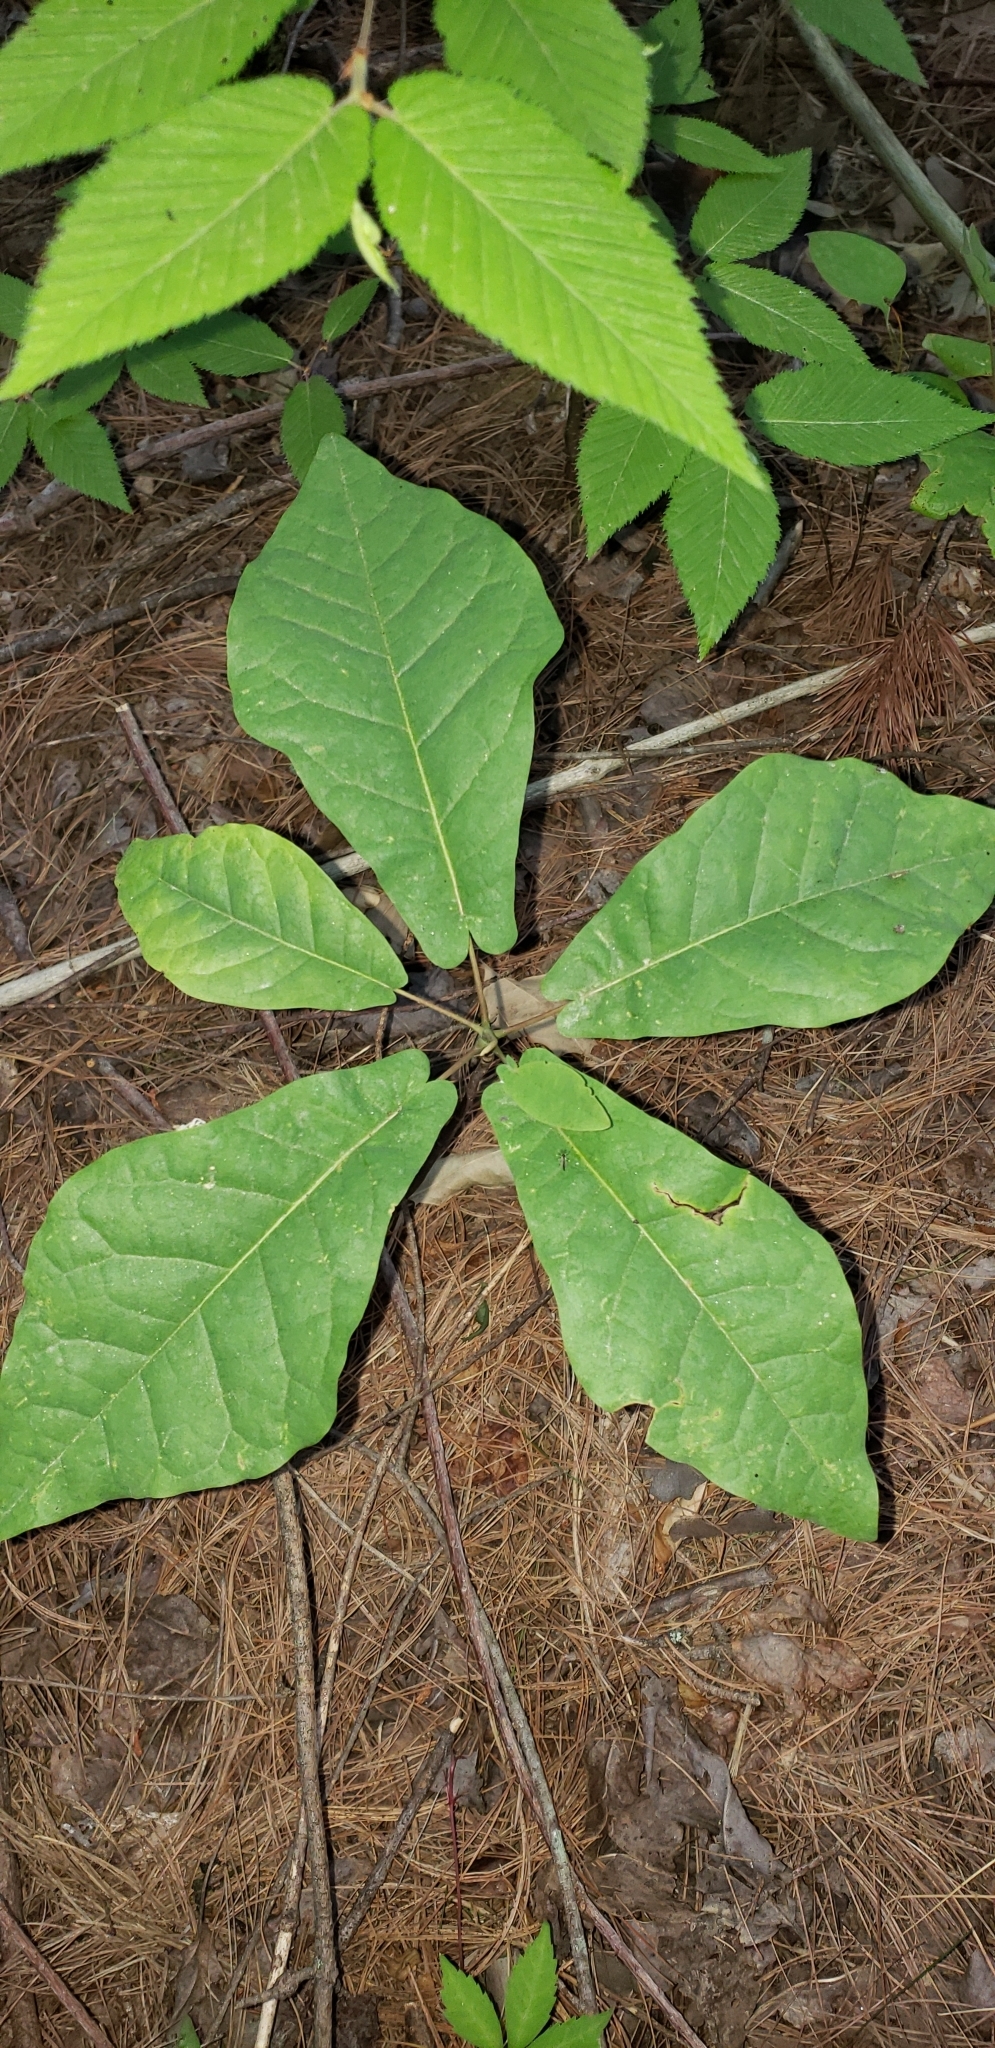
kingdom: Plantae
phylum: Tracheophyta
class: Magnoliopsida
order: Magnoliales
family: Magnoliaceae
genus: Magnolia
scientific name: Magnolia fraseri
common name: Fraser's magnolia
